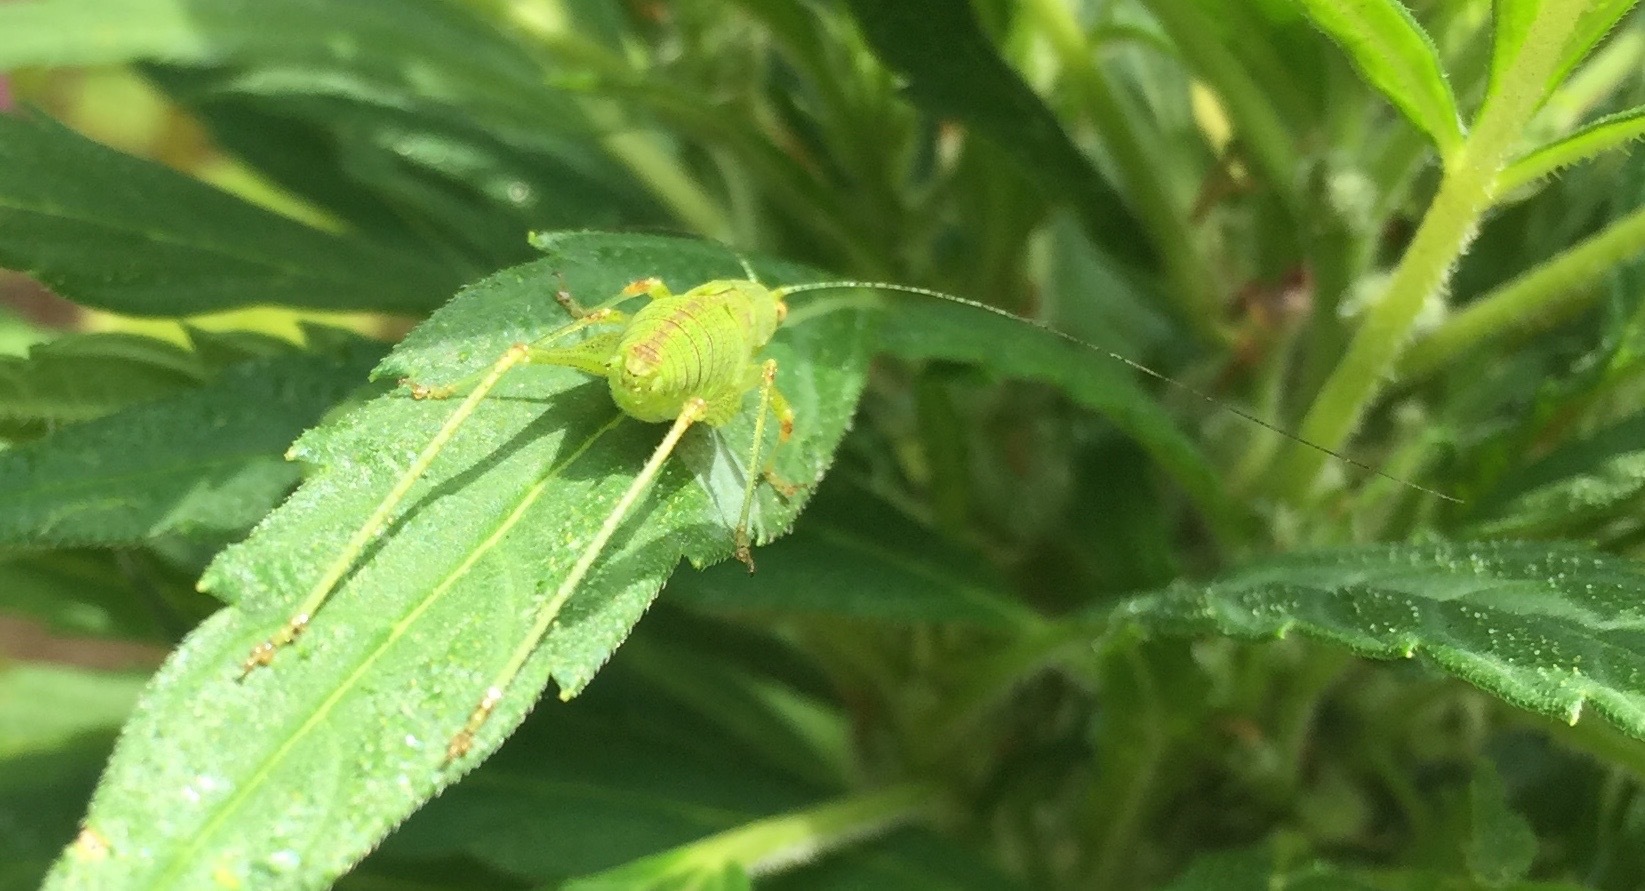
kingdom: Animalia
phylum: Arthropoda
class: Insecta
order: Orthoptera
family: Tettigoniidae
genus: Phaneroptera
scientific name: Phaneroptera nana
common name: Southern sickle bush-cricket
